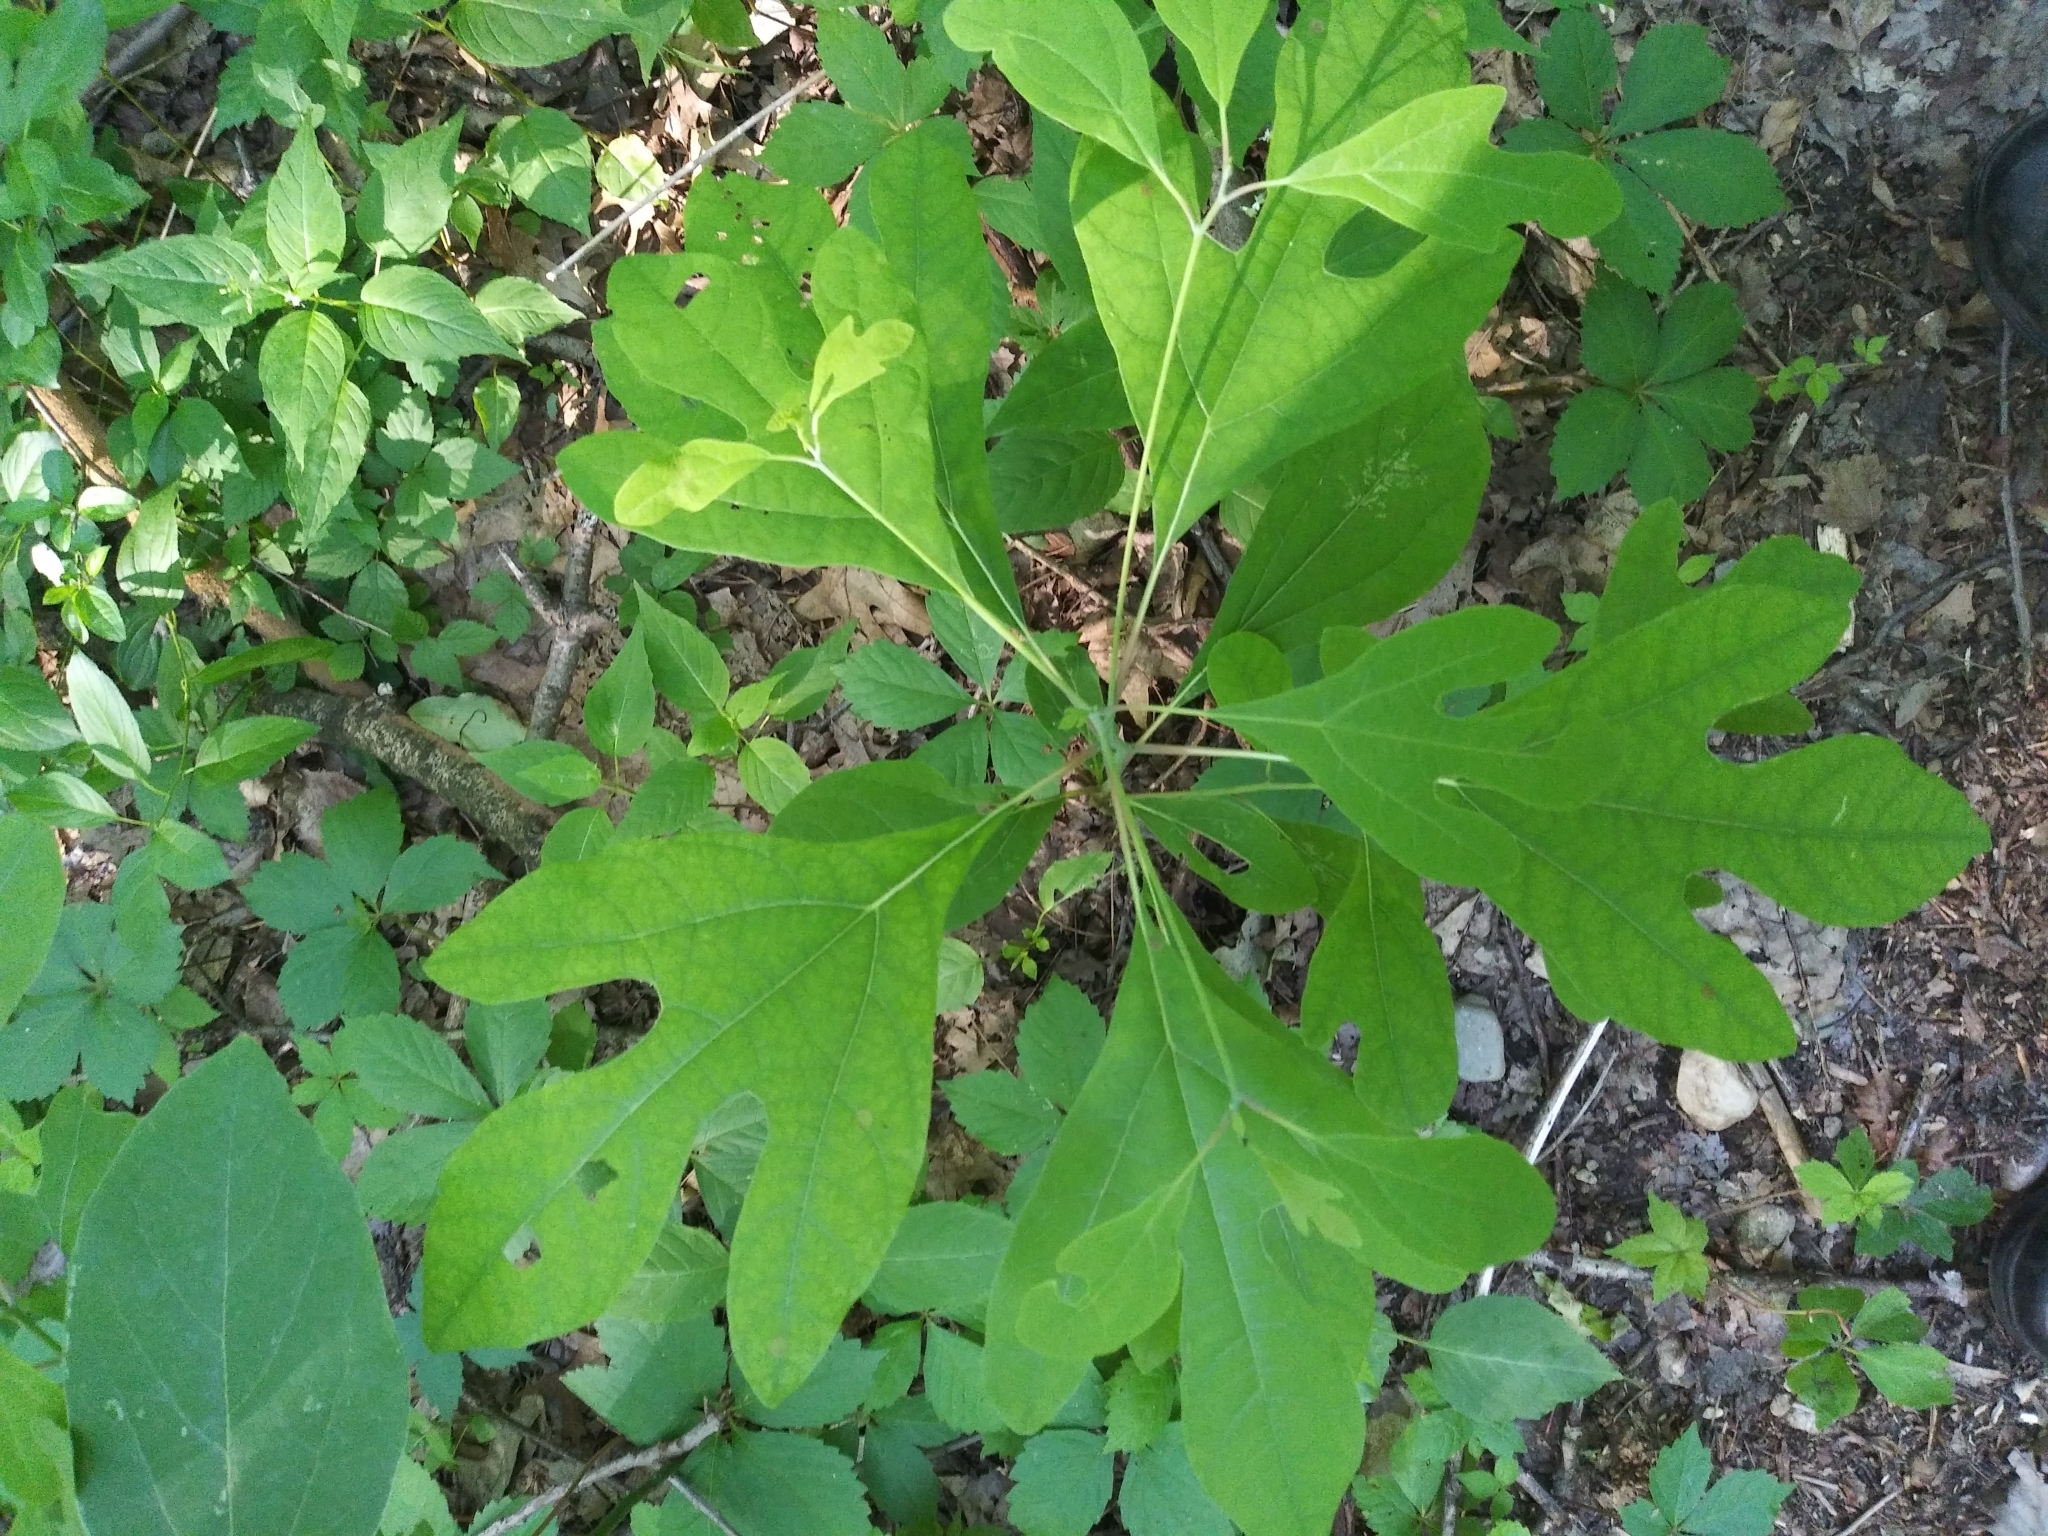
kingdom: Plantae
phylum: Tracheophyta
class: Magnoliopsida
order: Laurales
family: Lauraceae
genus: Sassafras
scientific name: Sassafras albidum
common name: Sassafras
